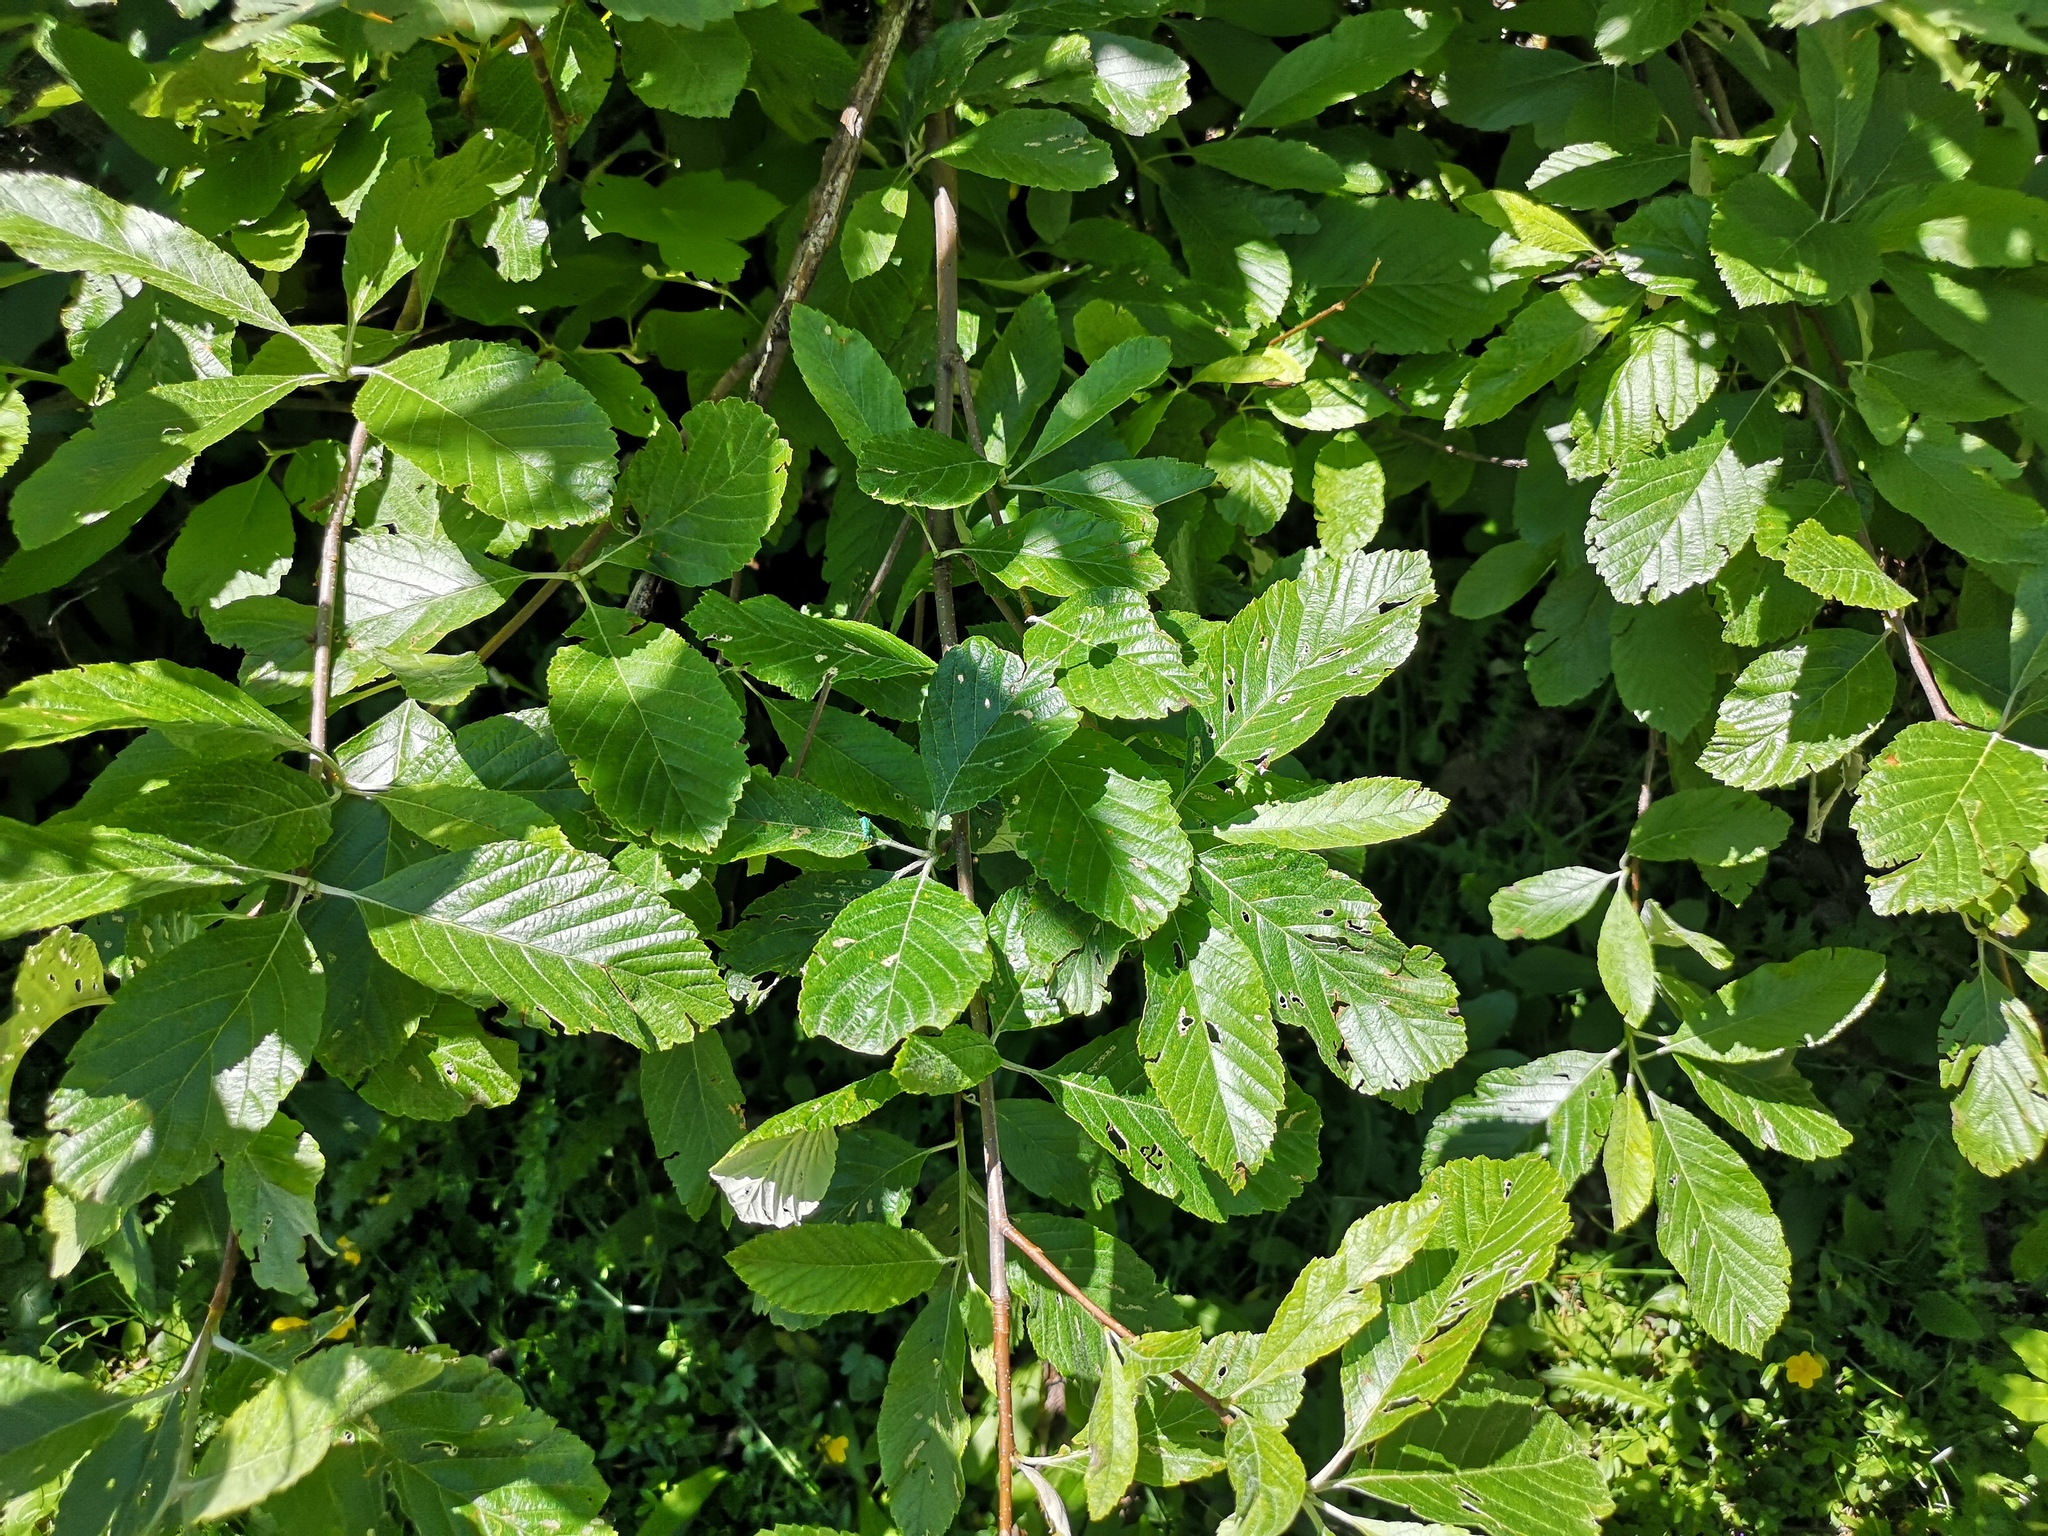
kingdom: Plantae
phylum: Tracheophyta
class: Magnoliopsida
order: Rosales
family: Rosaceae
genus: Aria
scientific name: Aria edulis
